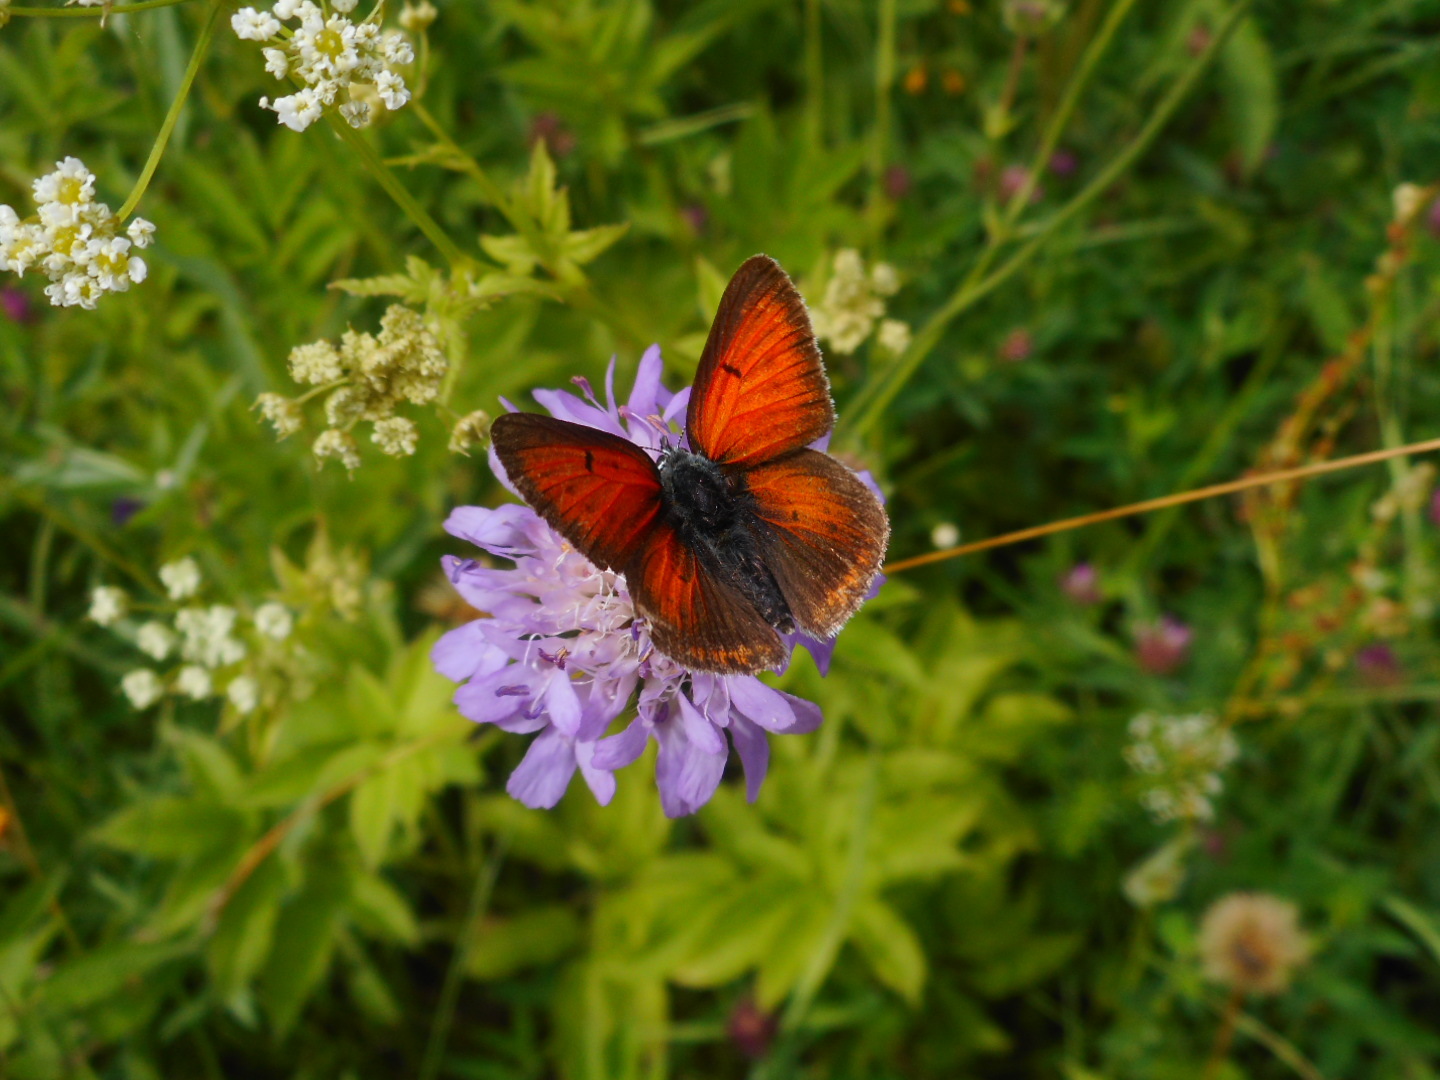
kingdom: Animalia
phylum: Arthropoda
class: Insecta
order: Lepidoptera
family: Lycaenidae
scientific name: Lycaenidae
